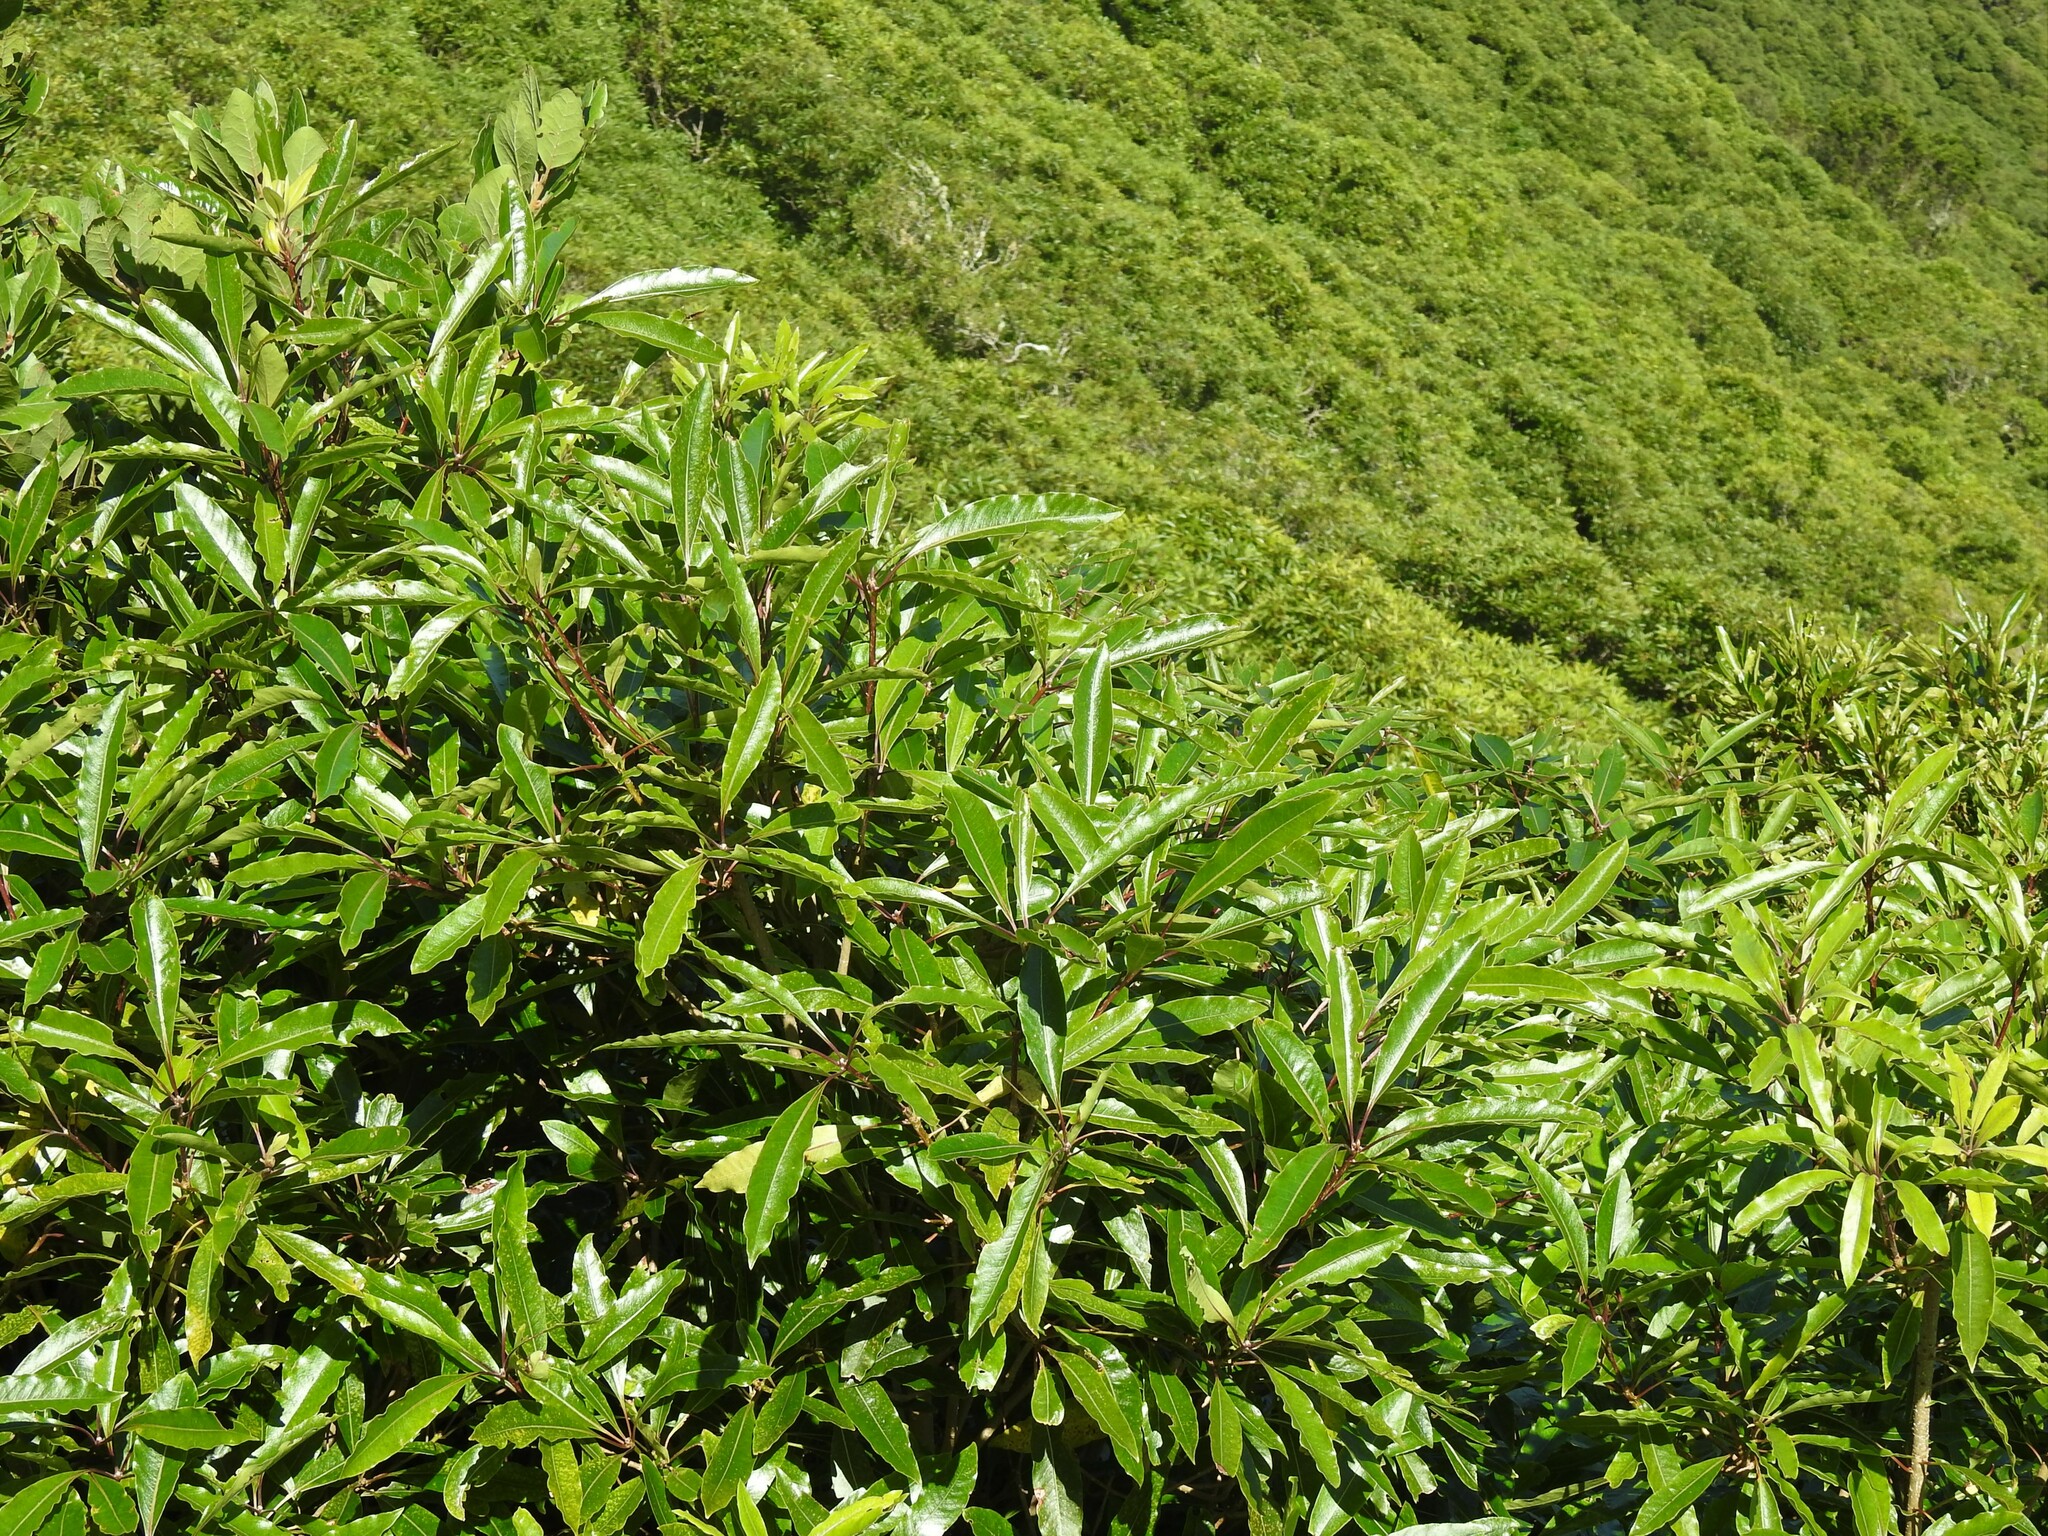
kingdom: Plantae
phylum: Tracheophyta
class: Magnoliopsida
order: Apiales
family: Pittosporaceae
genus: Pittosporum
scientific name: Pittosporum undulatum
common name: Australian cheesewood
